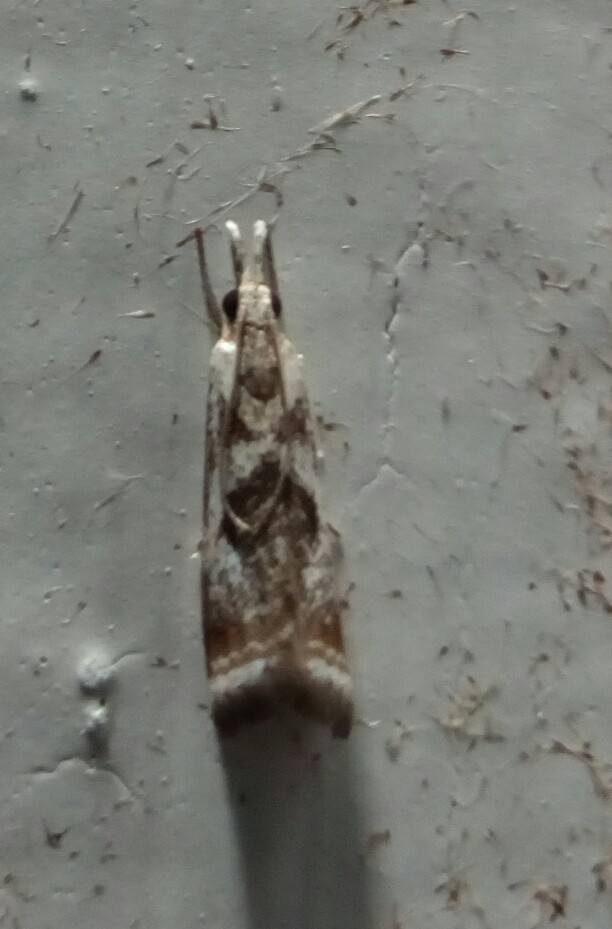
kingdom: Animalia
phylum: Arthropoda
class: Insecta
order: Lepidoptera
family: Crambidae
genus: Microcrambus
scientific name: Microcrambus elegans
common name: Elegant grass-veneer
